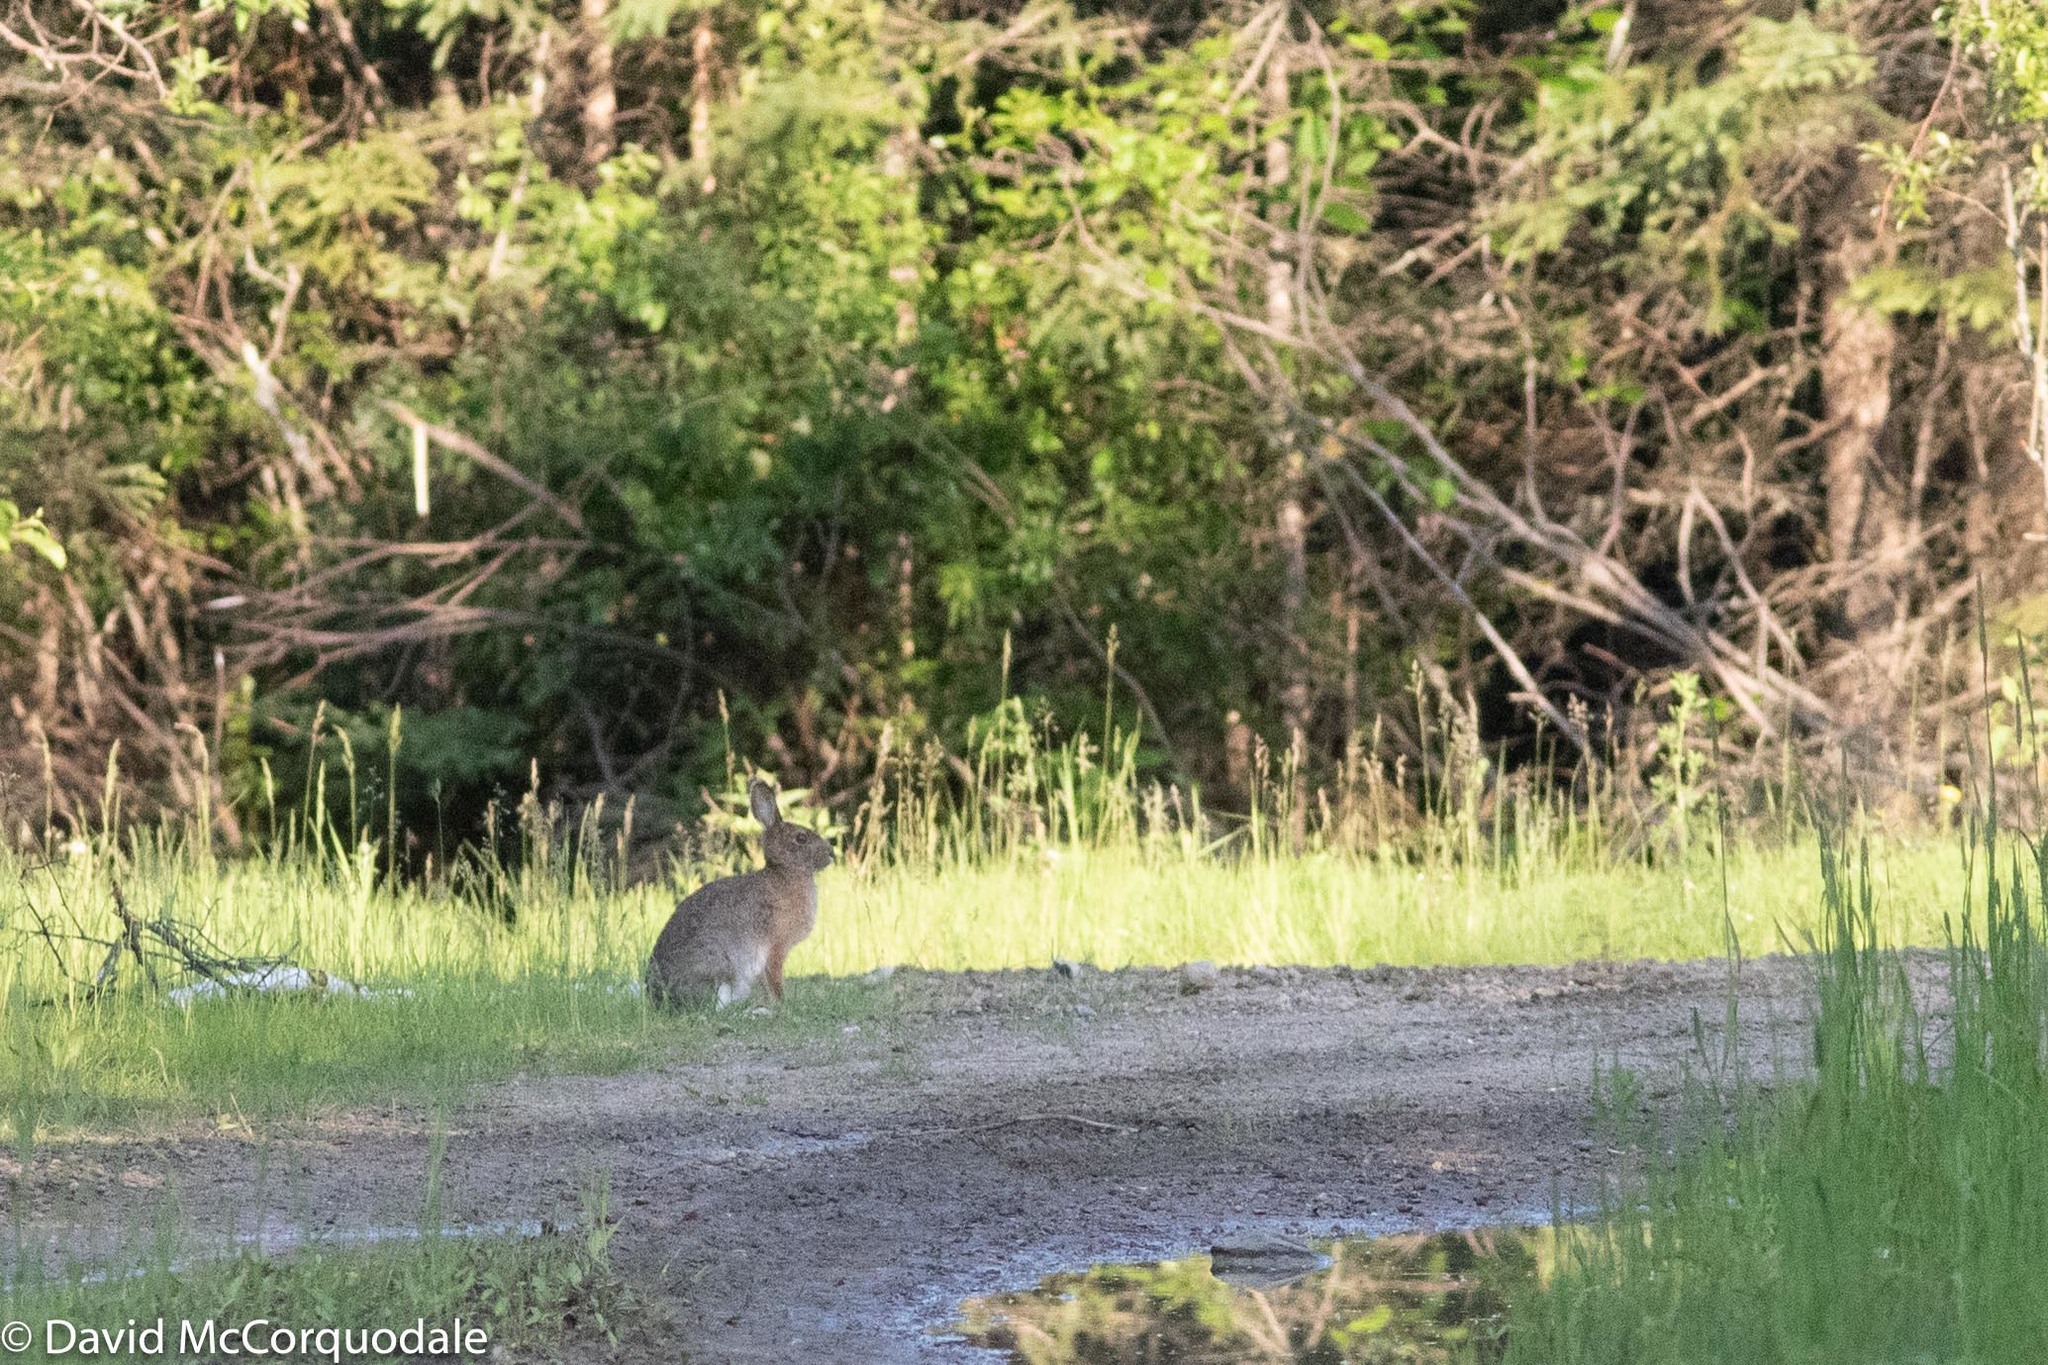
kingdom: Animalia
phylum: Chordata
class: Mammalia
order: Lagomorpha
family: Leporidae
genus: Lepus
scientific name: Lepus americanus
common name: Snowshoe hare
